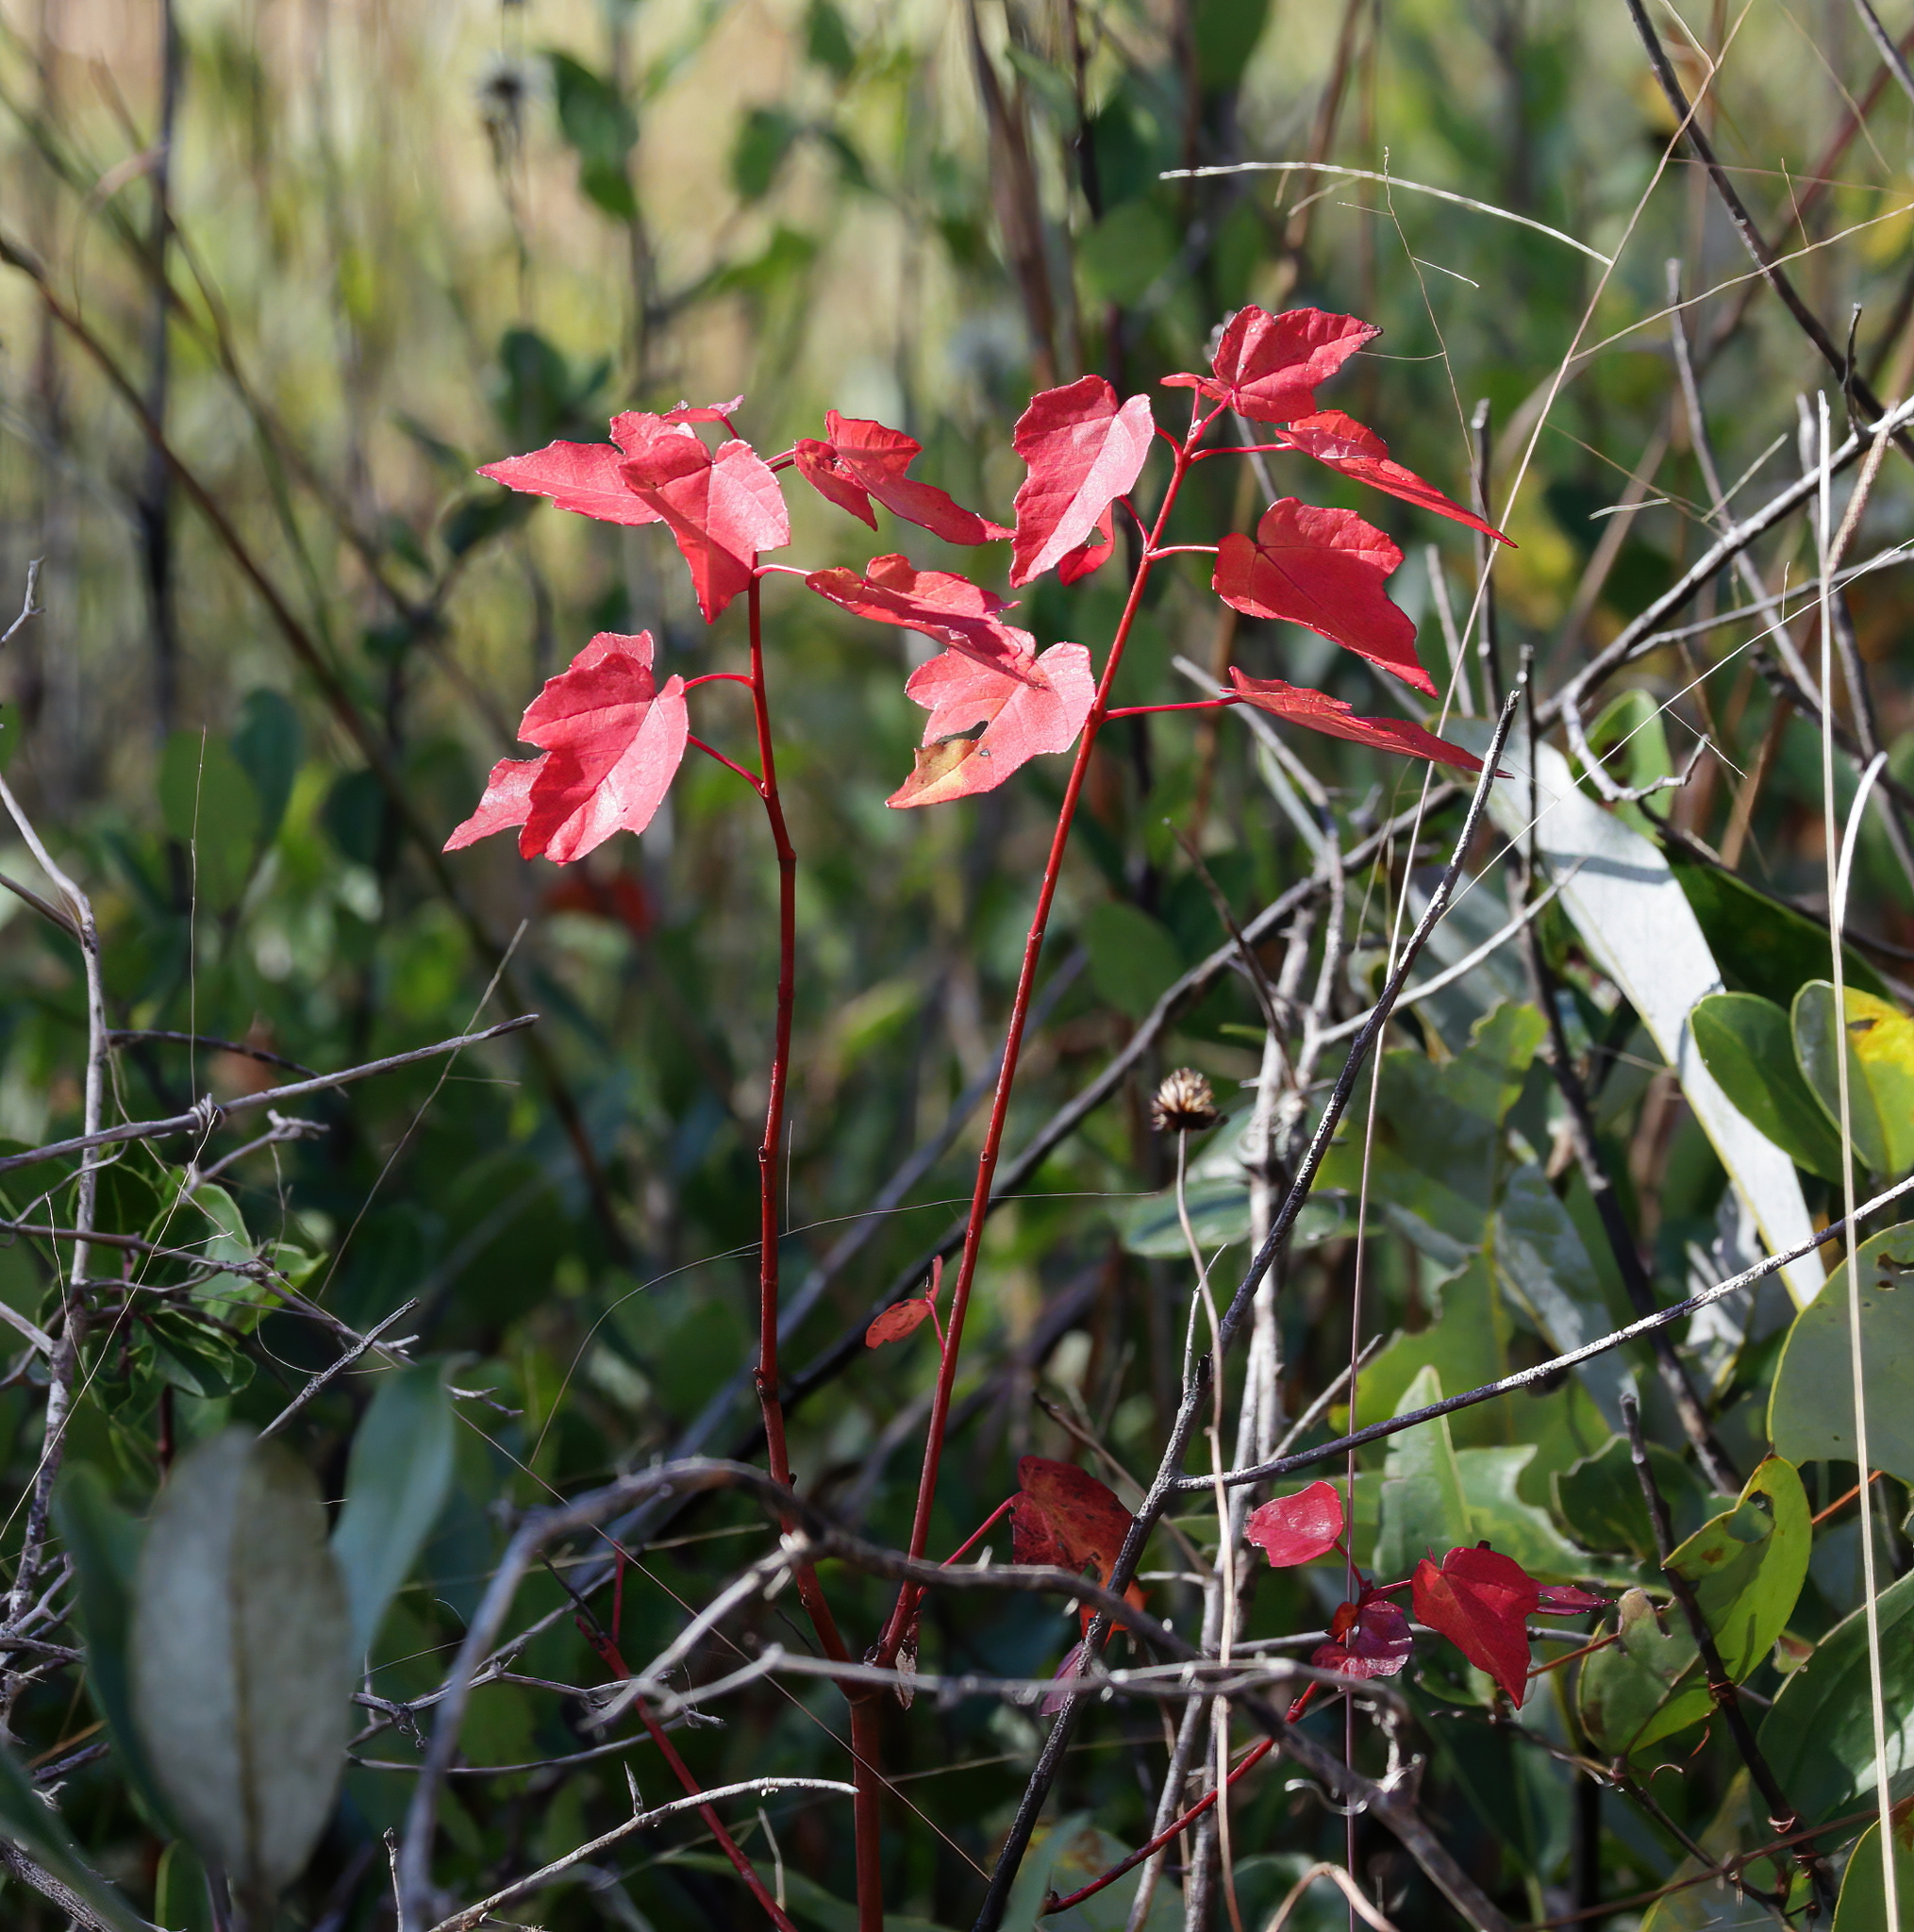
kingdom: Plantae
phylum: Tracheophyta
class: Magnoliopsida
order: Sapindales
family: Sapindaceae
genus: Acer
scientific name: Acer rubrum
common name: Red maple
